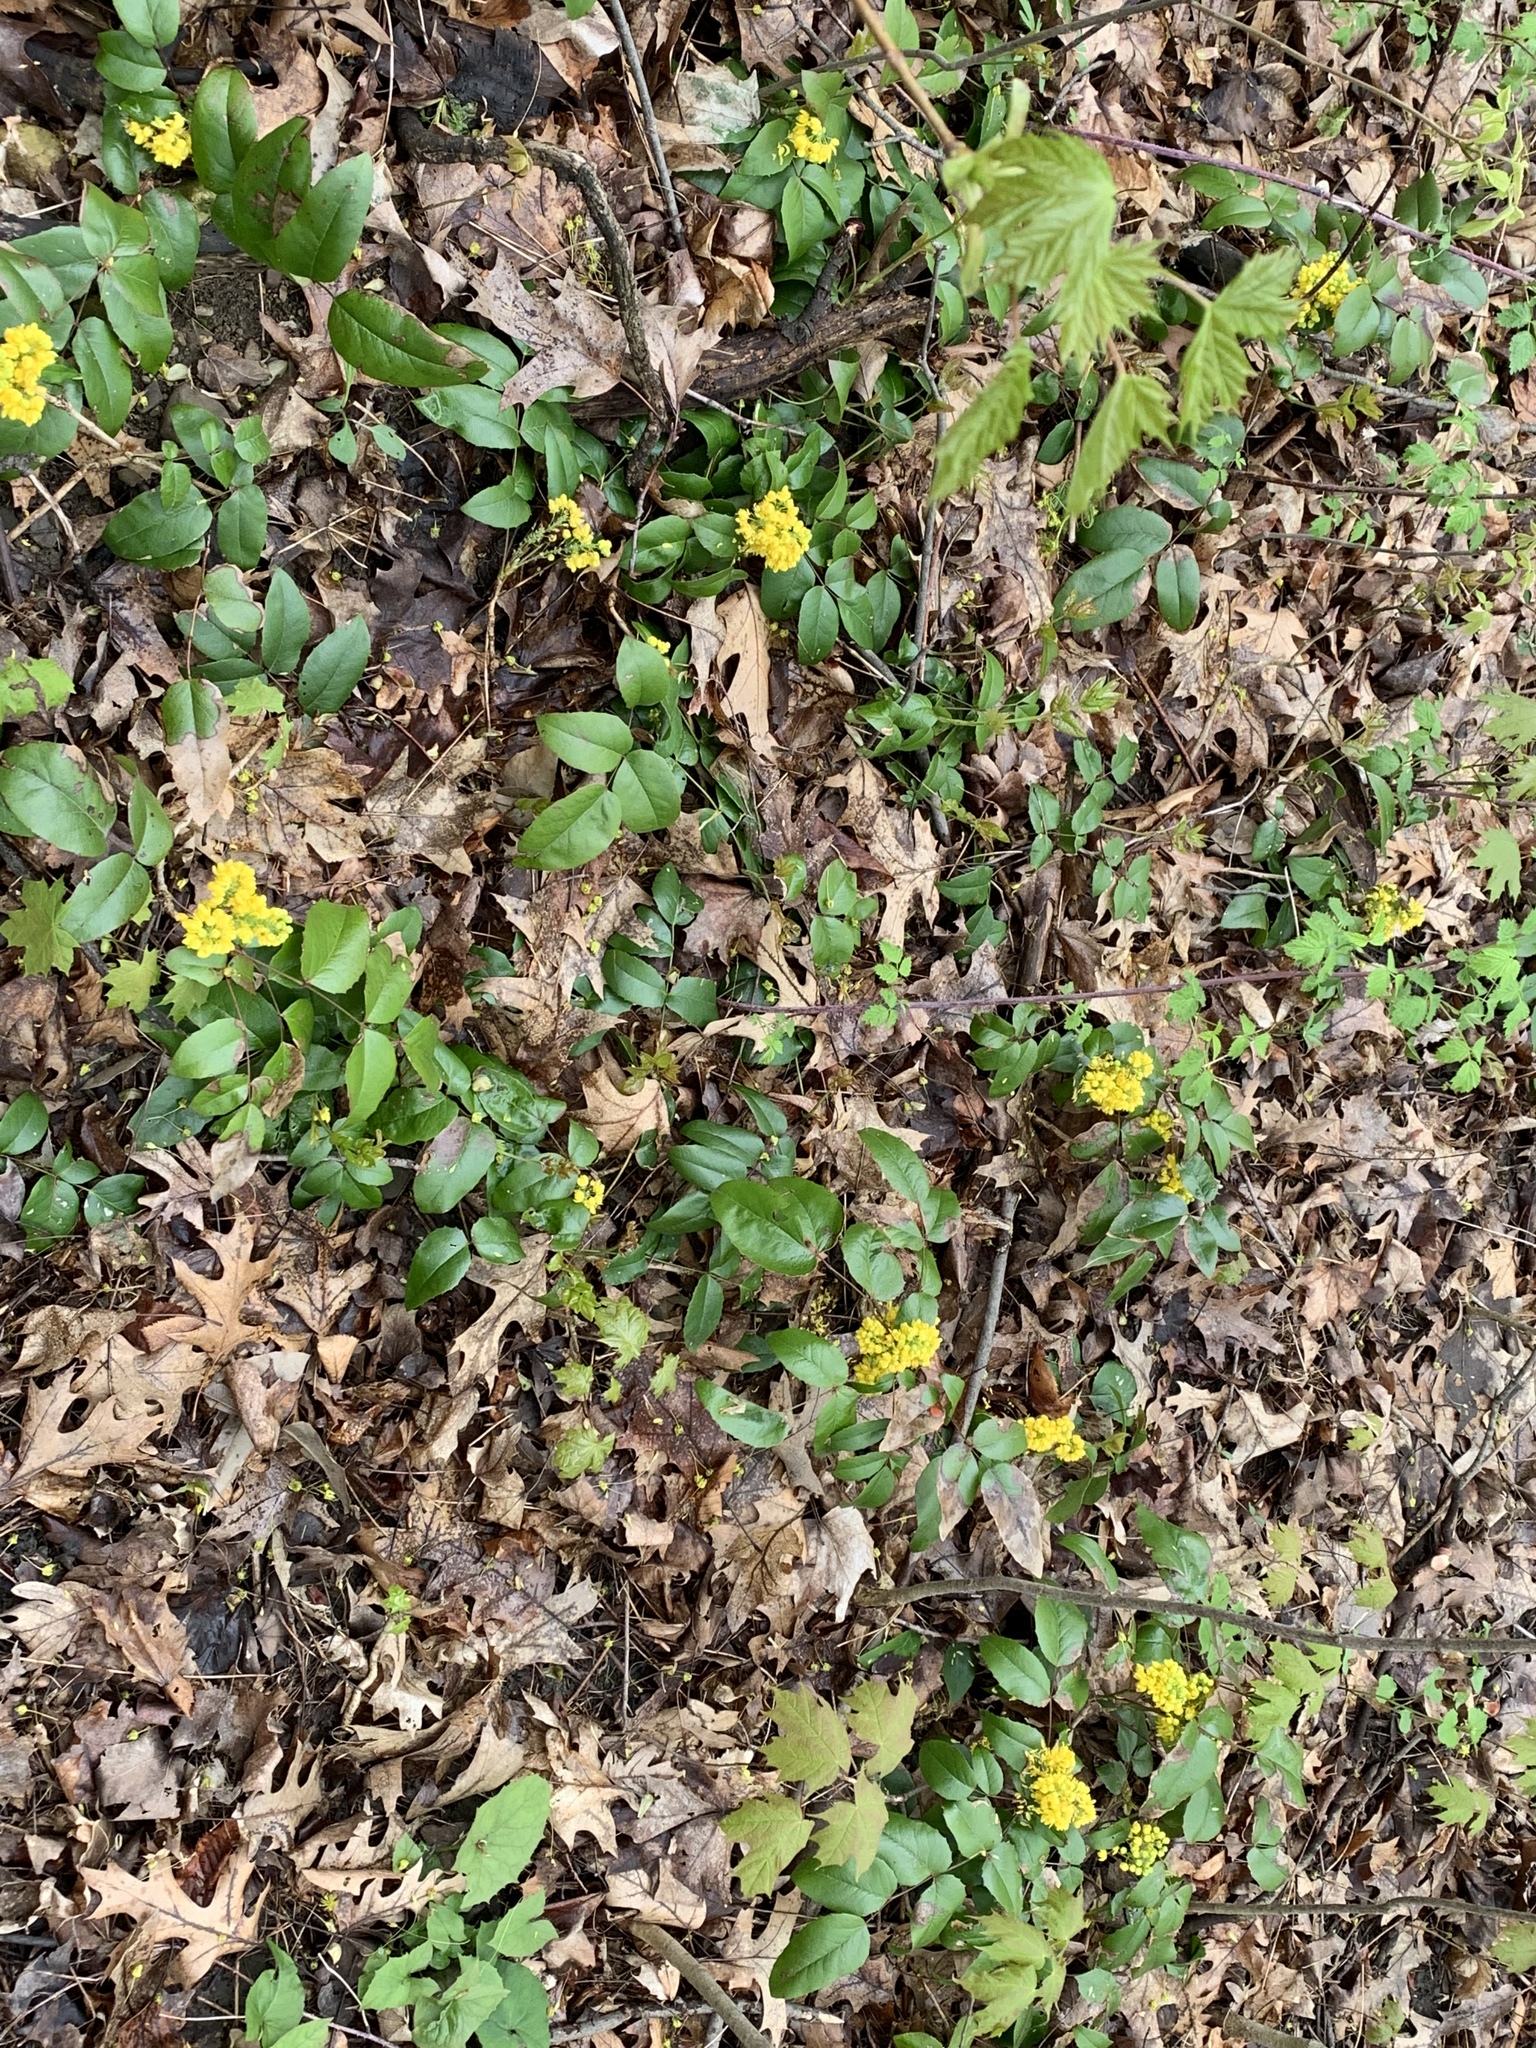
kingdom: Plantae
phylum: Tracheophyta
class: Magnoliopsida
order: Ranunculales
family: Berberidaceae
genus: Mahonia
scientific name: Mahonia repens
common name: Creeping oregon-grape
